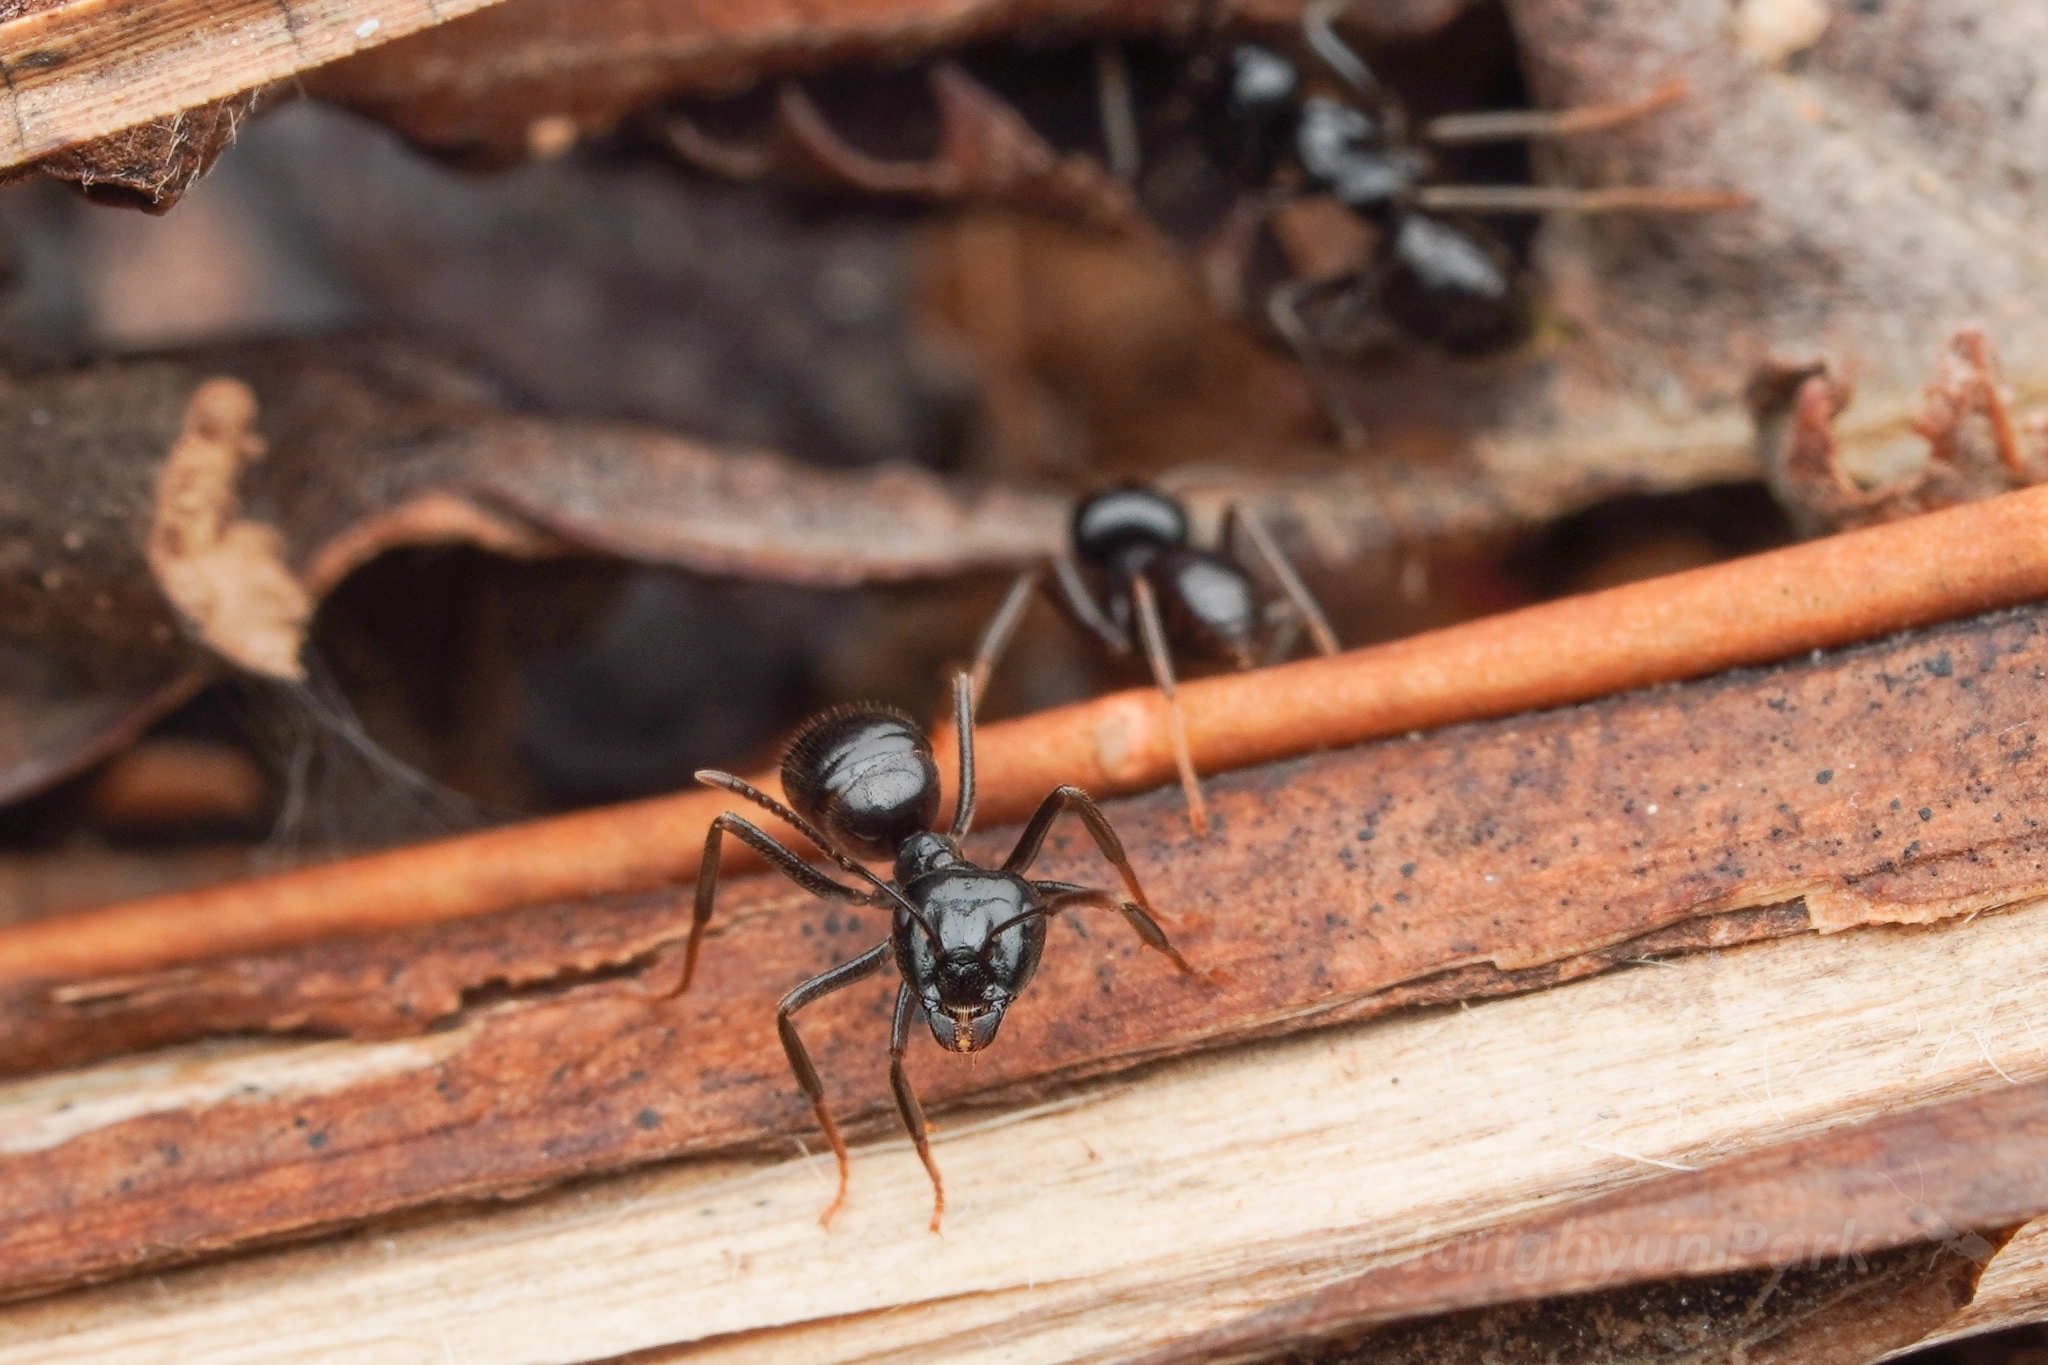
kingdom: Animalia
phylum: Arthropoda
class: Insecta
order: Hymenoptera
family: Formicidae
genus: Lasius
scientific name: Lasius spathepus
